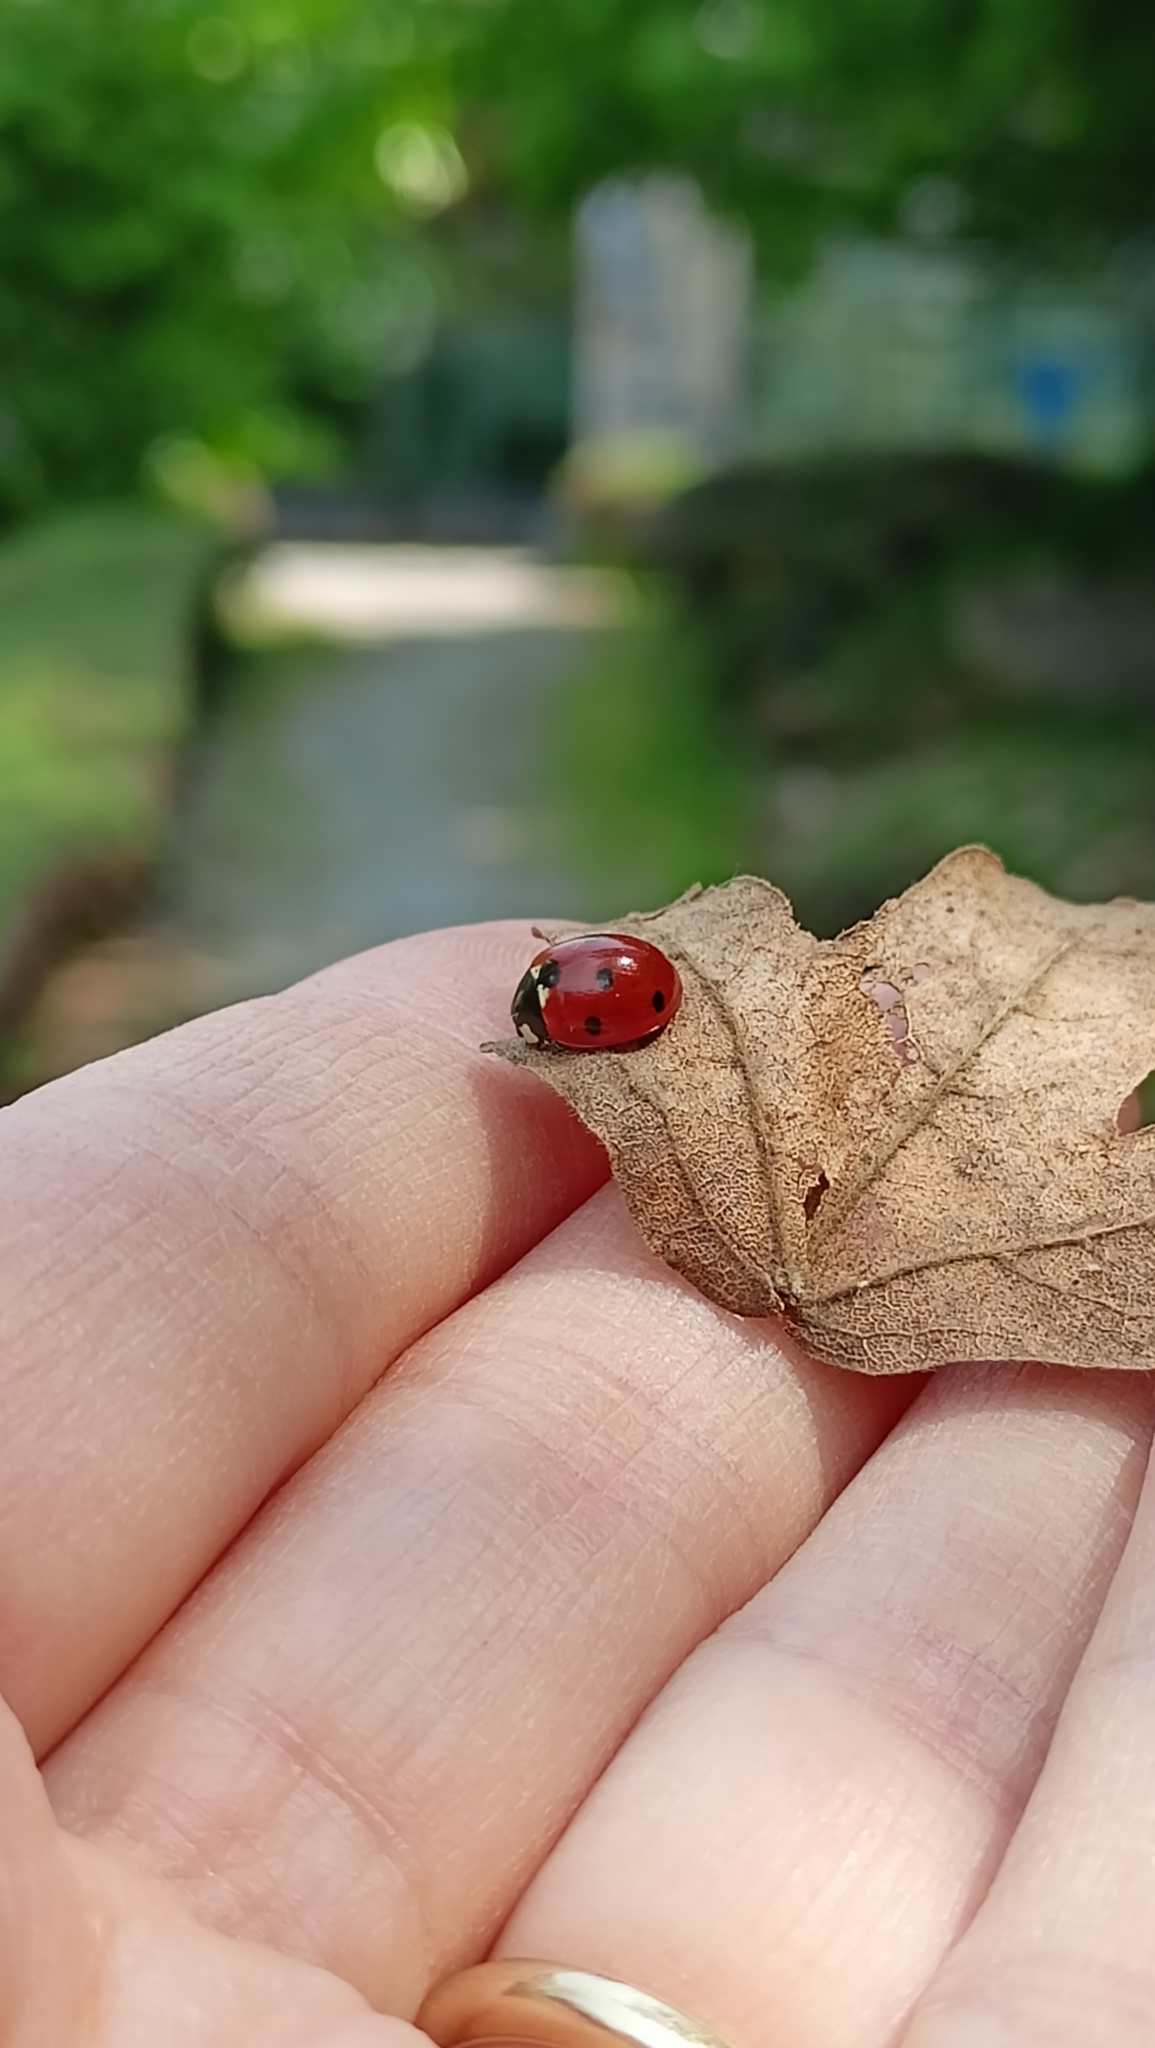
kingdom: Animalia
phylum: Arthropoda
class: Insecta
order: Coleoptera
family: Coccinellidae
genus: Coccinella
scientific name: Coccinella septempunctata
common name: Sevenspotted lady beetle
